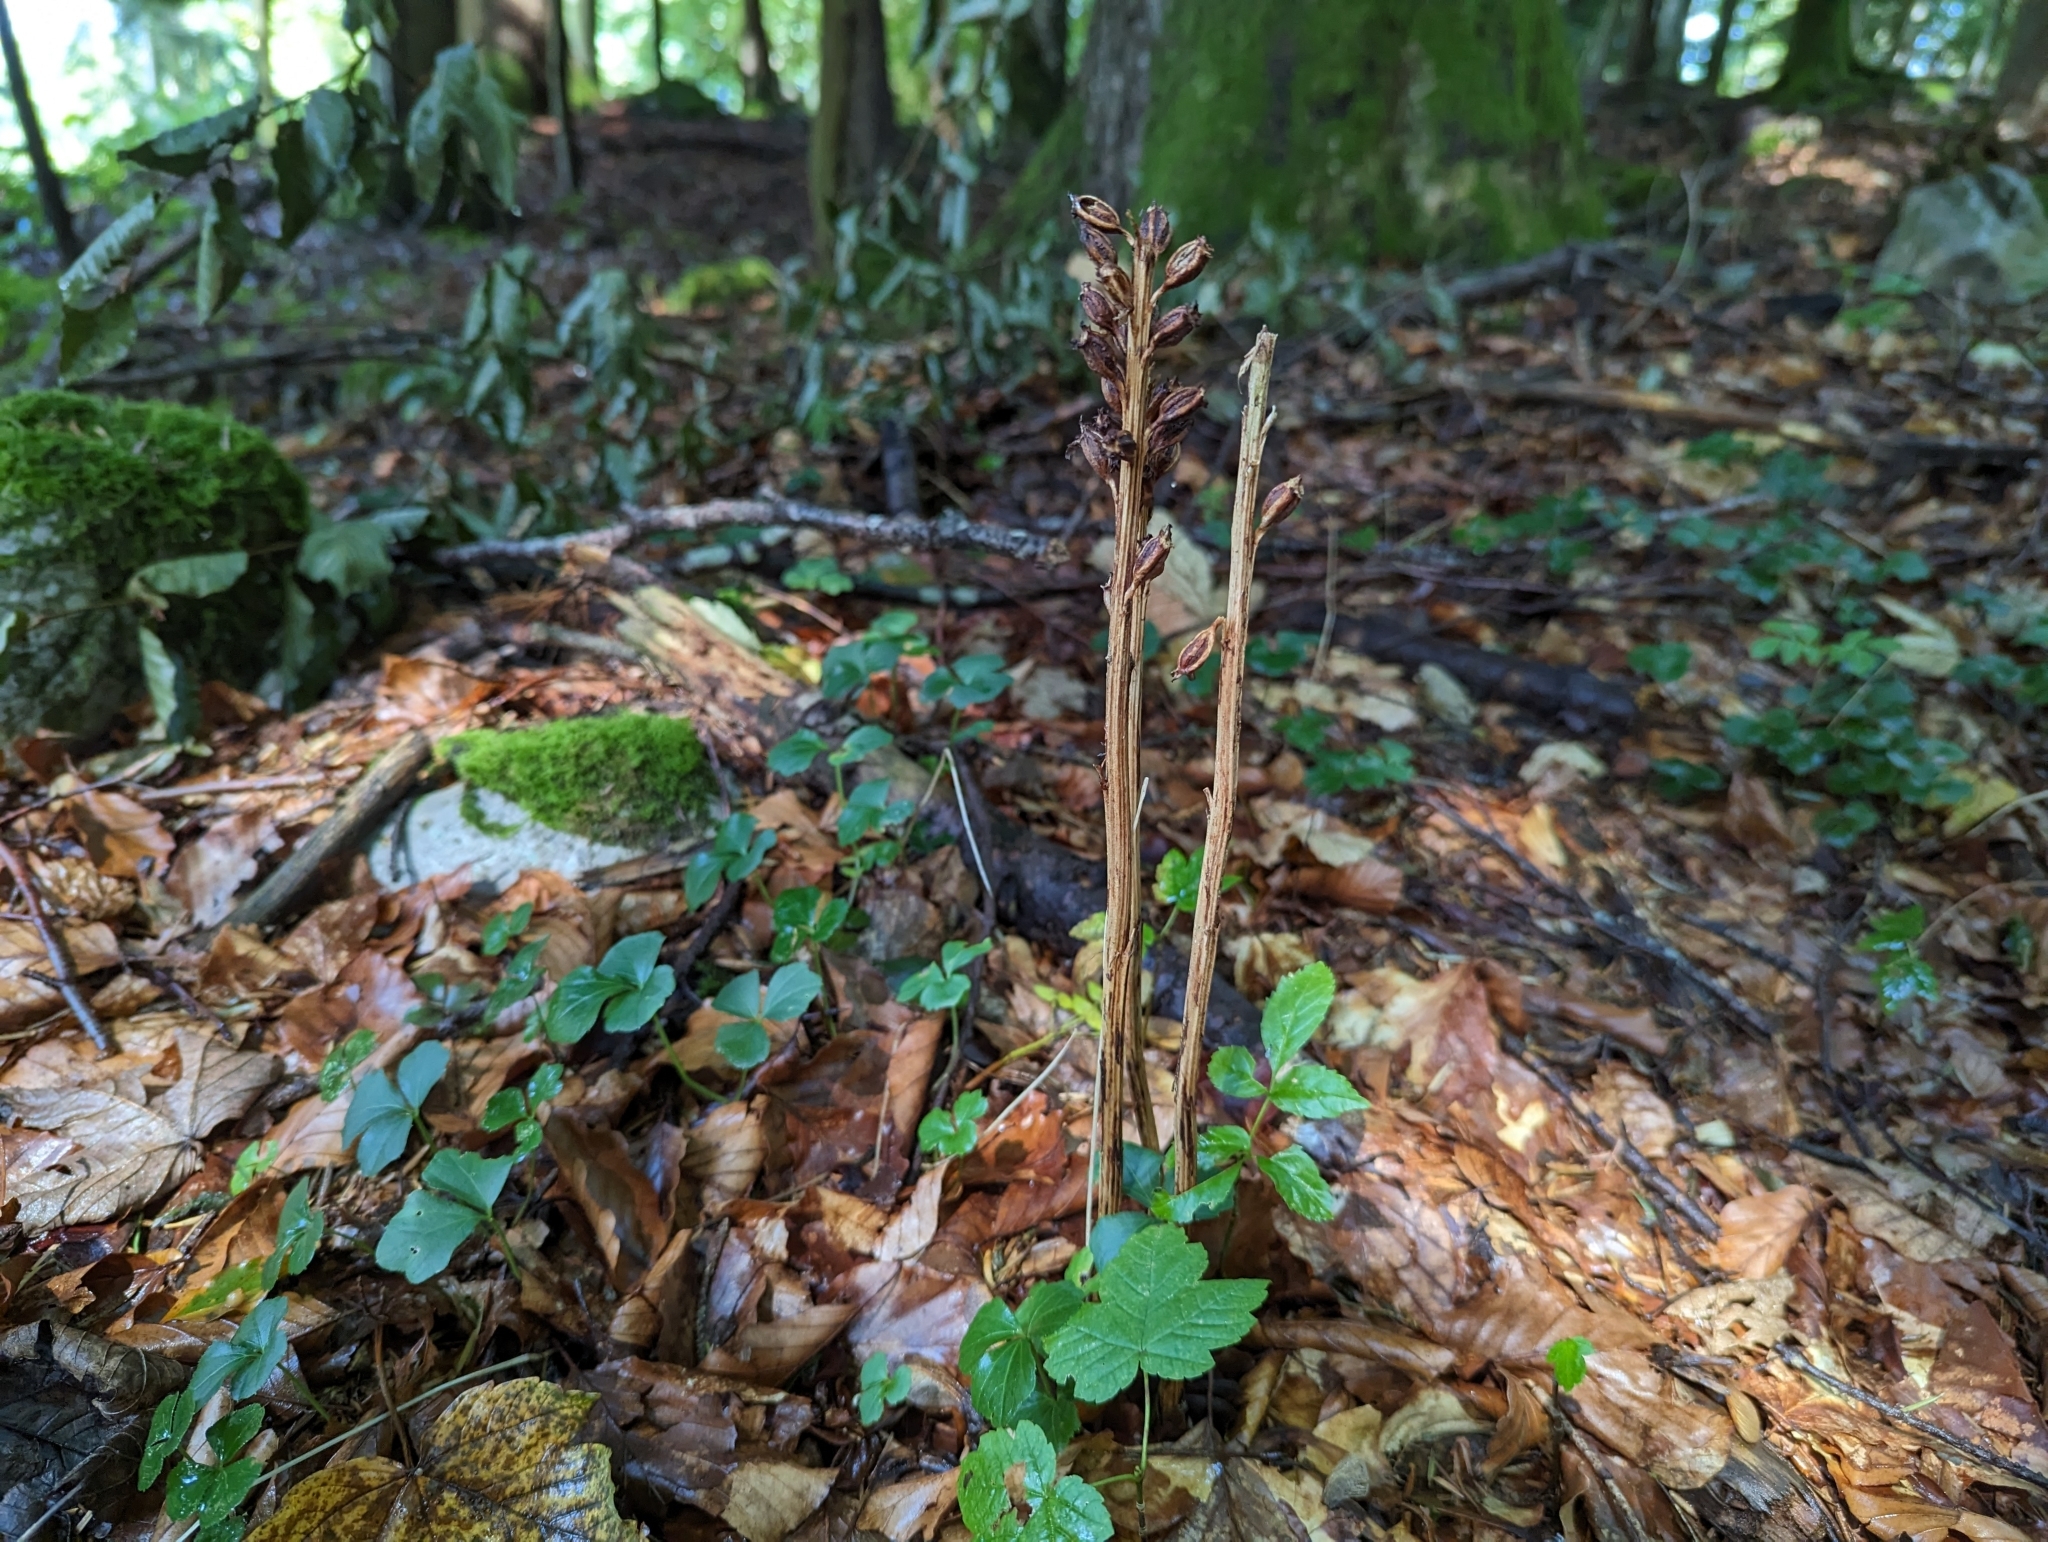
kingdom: Plantae
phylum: Tracheophyta
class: Liliopsida
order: Asparagales
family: Orchidaceae
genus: Neottia
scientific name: Neottia nidus-avis
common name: Bird's-nest orchid
